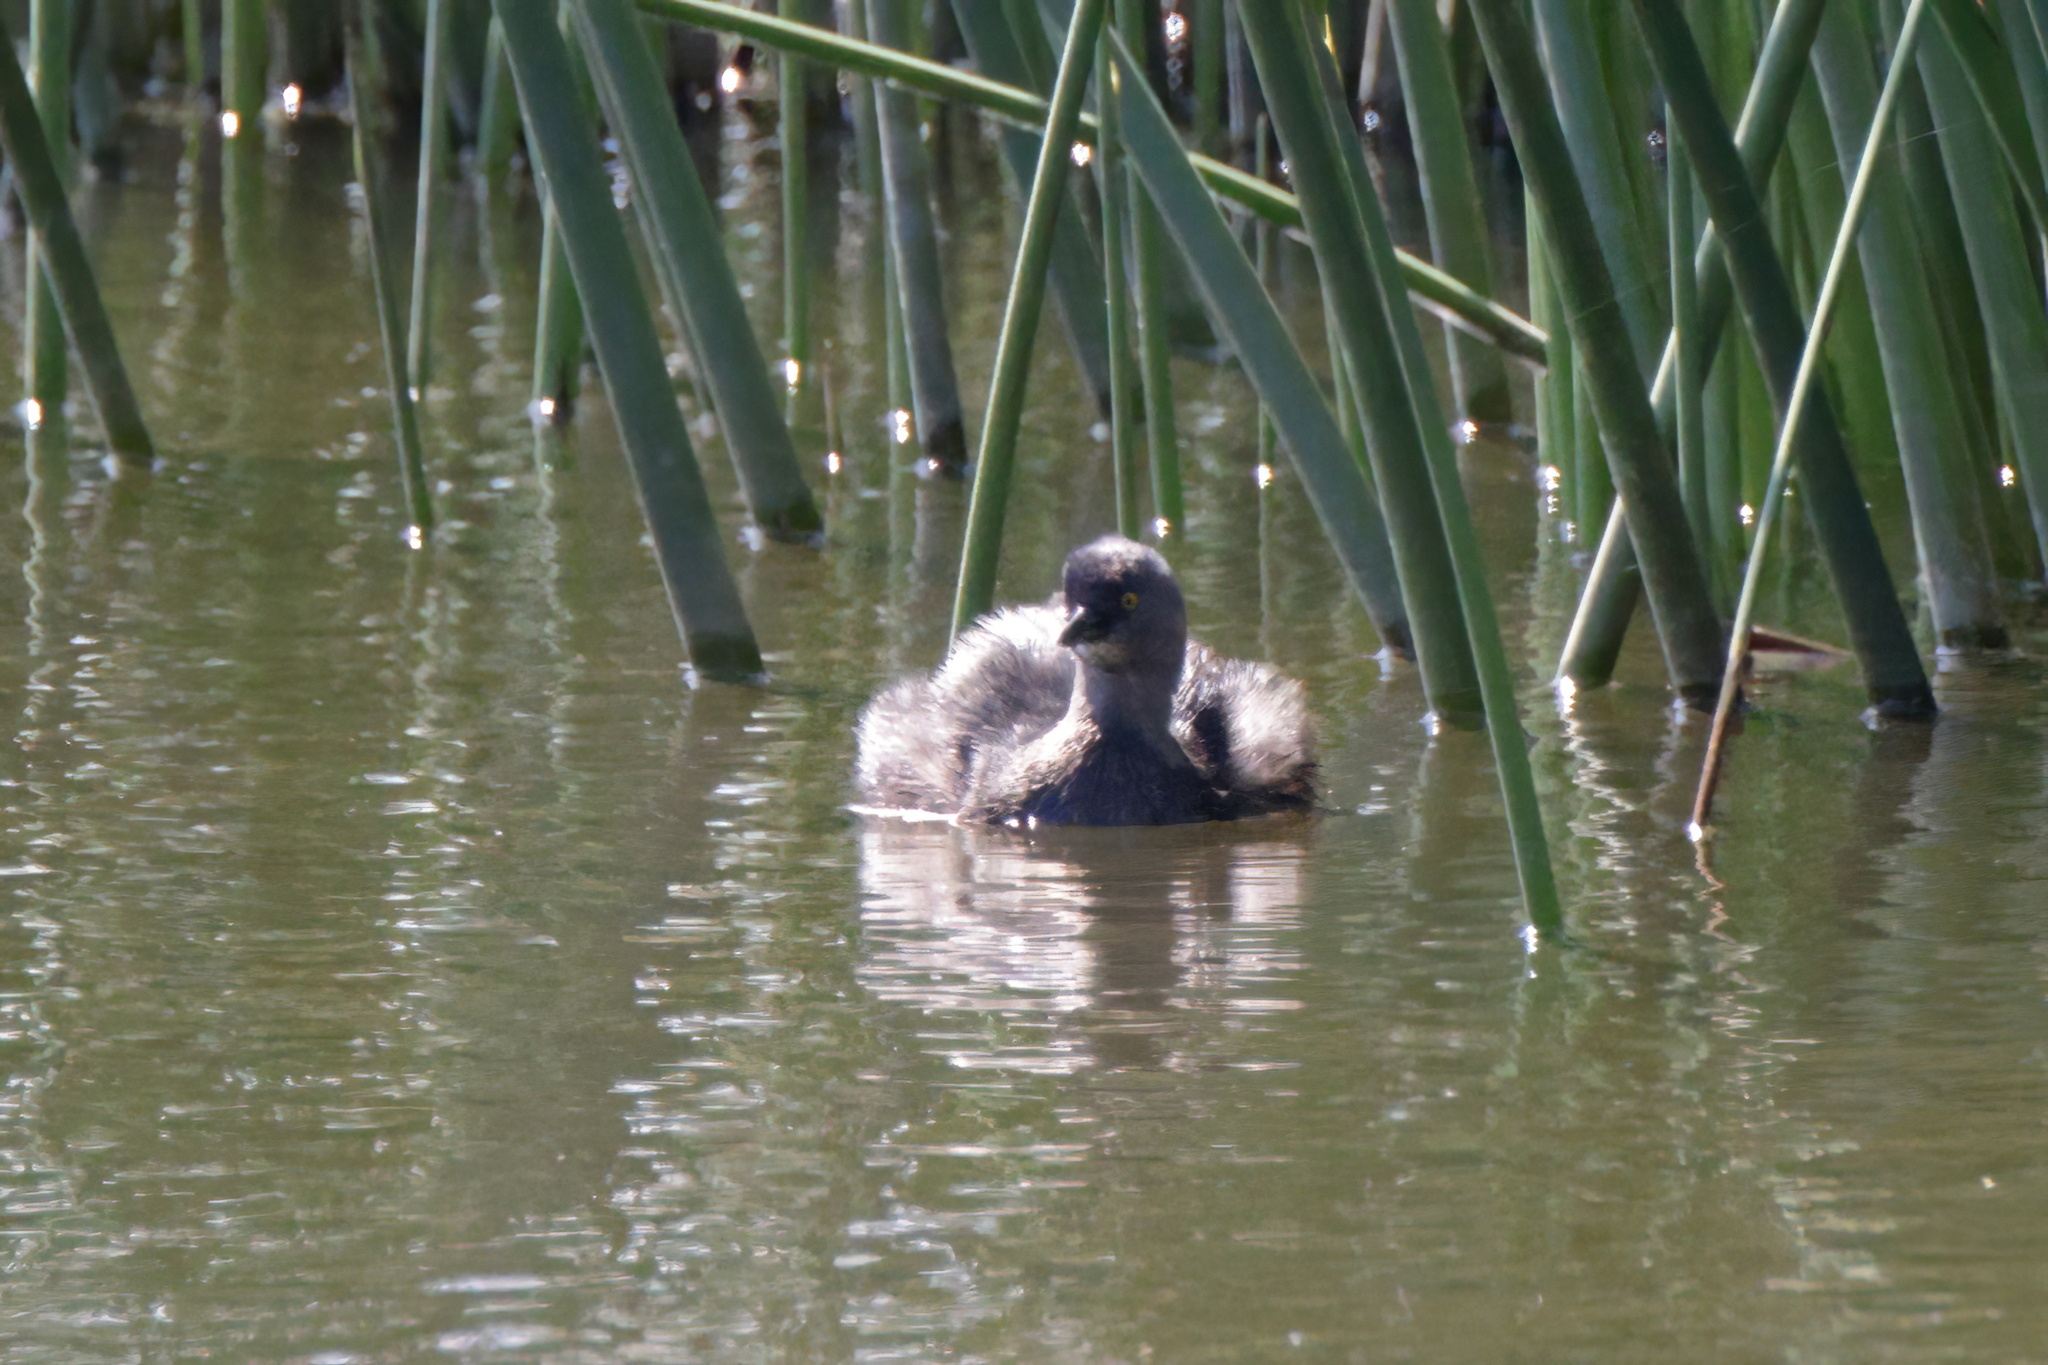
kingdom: Animalia
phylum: Chordata
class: Aves
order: Podicipediformes
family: Podicipedidae
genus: Tachybaptus
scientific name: Tachybaptus dominicus
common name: Least grebe
